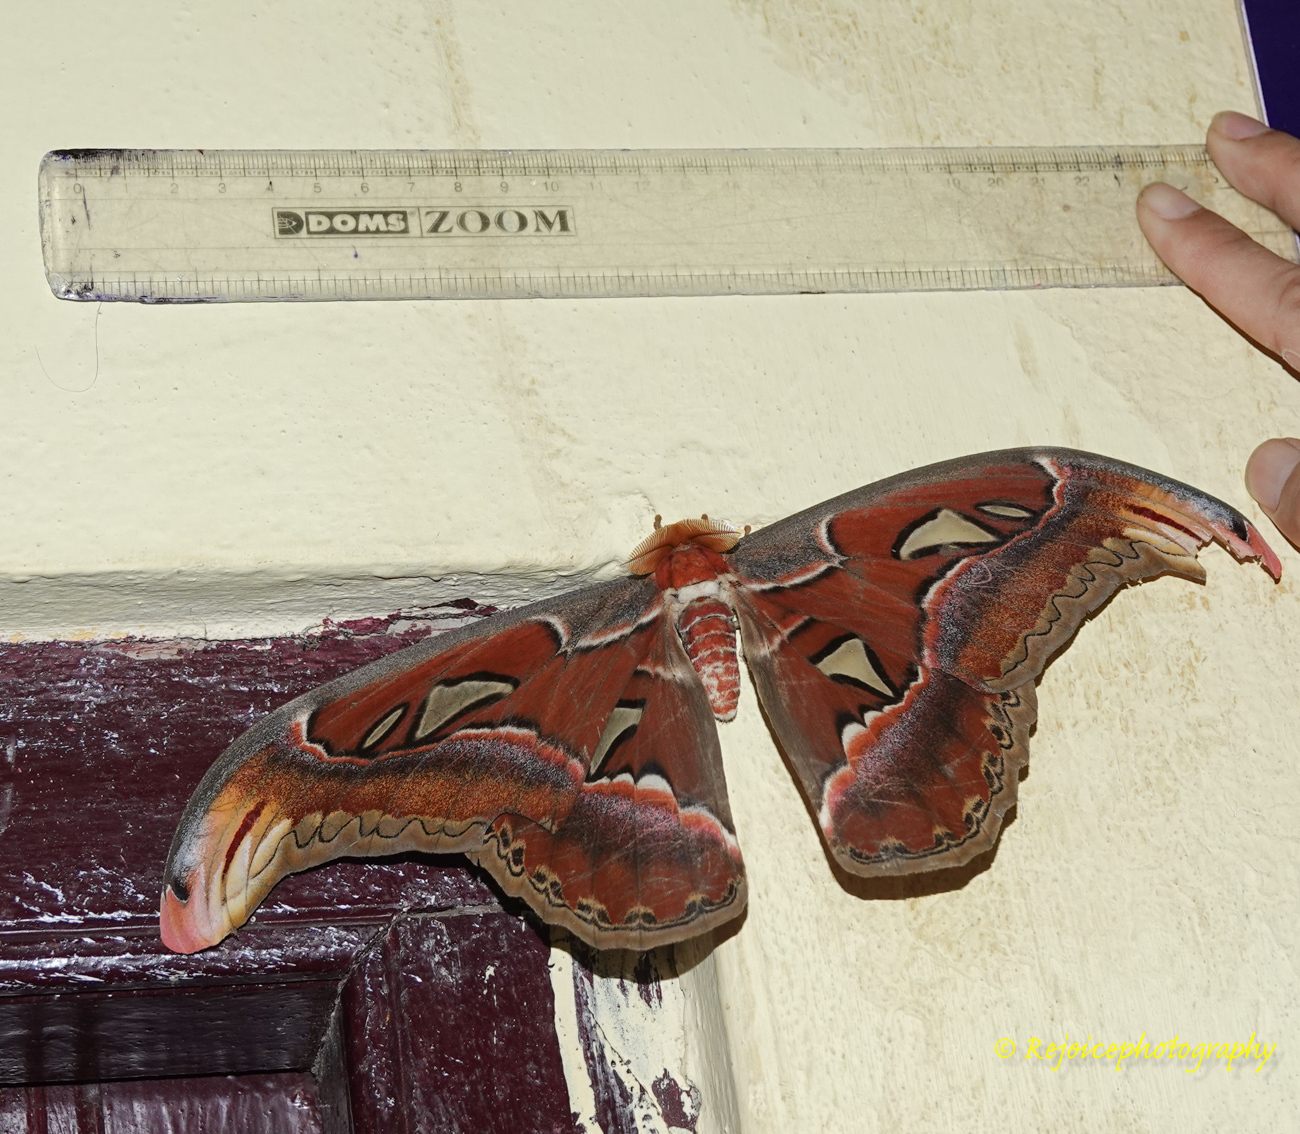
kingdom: Animalia
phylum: Arthropoda
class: Insecta
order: Lepidoptera
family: Saturniidae
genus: Attacus
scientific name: Attacus atlas
